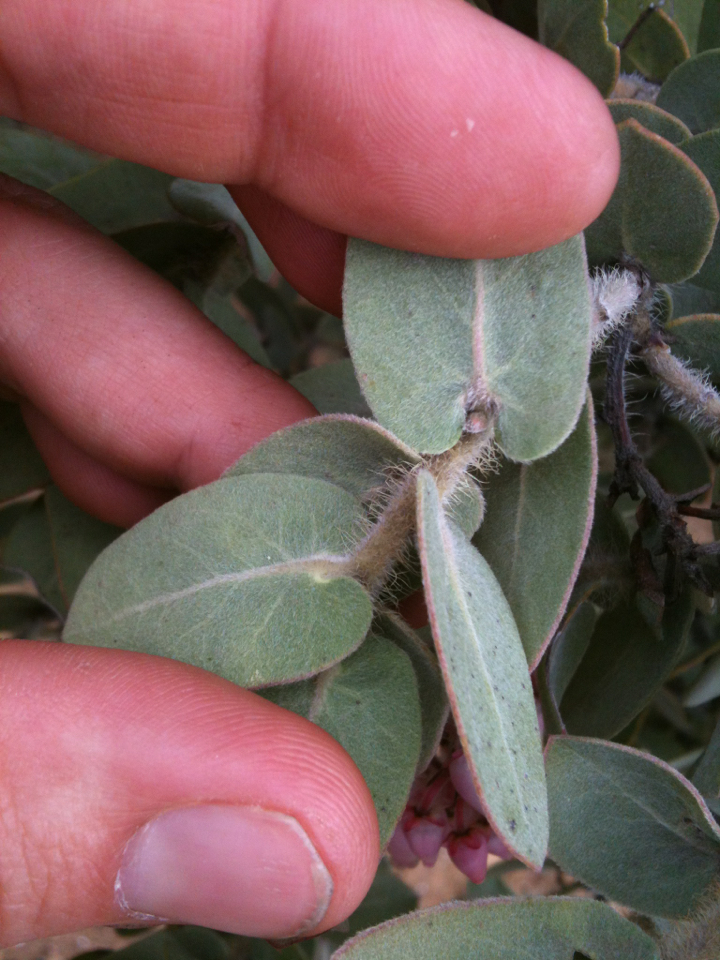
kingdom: Plantae
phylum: Tracheophyta
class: Magnoliopsida
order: Ericales
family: Ericaceae
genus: Arctostaphylos
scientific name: Arctostaphylos auriculata
